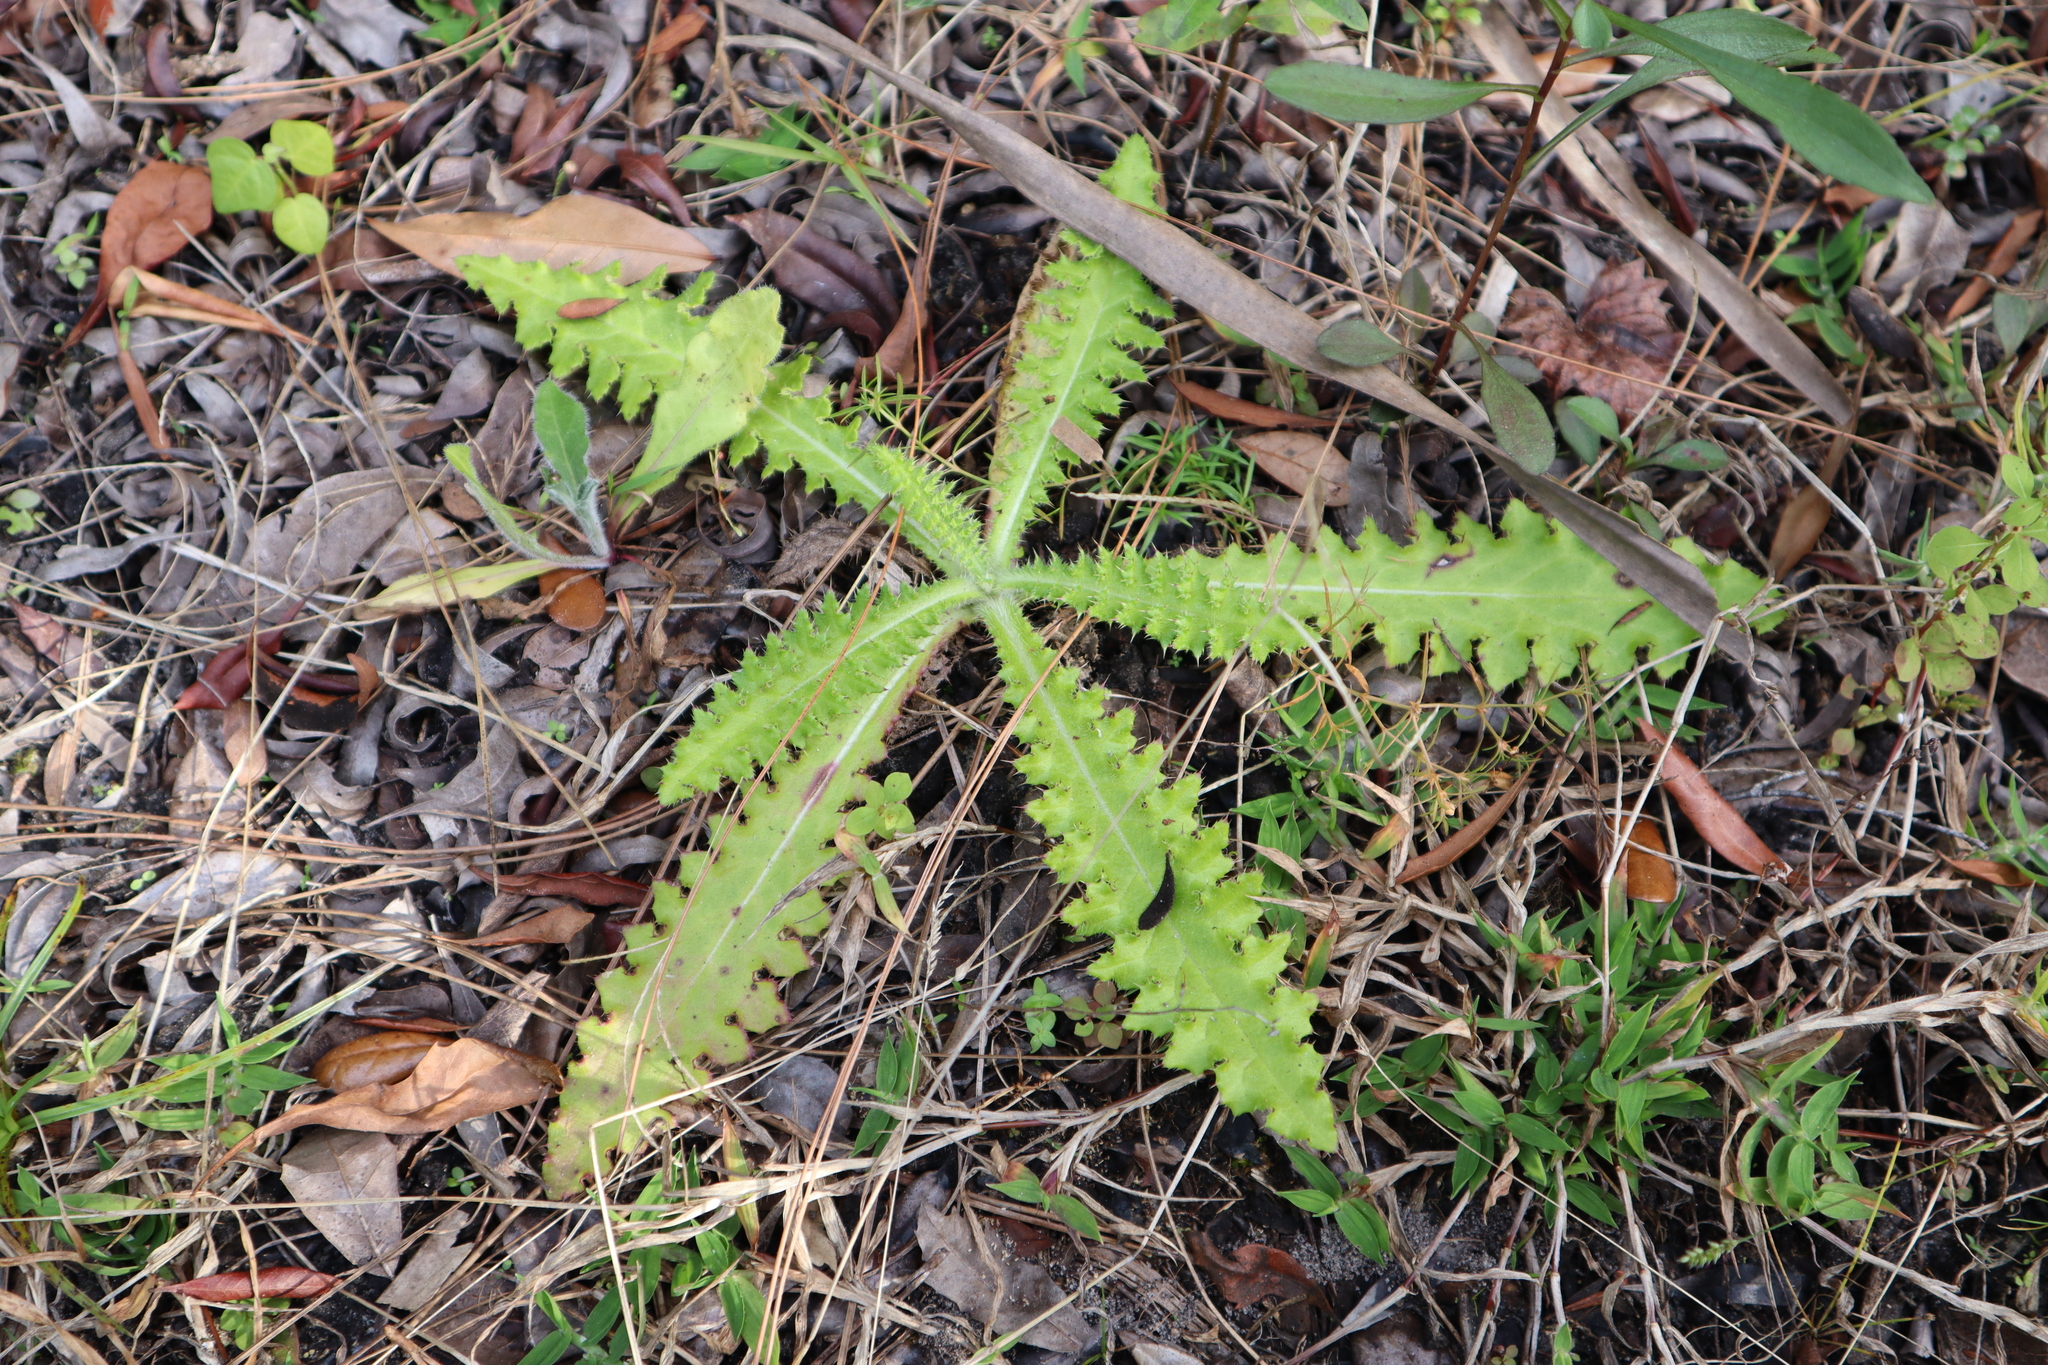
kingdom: Plantae
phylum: Tracheophyta
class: Magnoliopsida
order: Asterales
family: Asteraceae
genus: Cirsium
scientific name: Cirsium horridulum
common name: Bristly thistle
